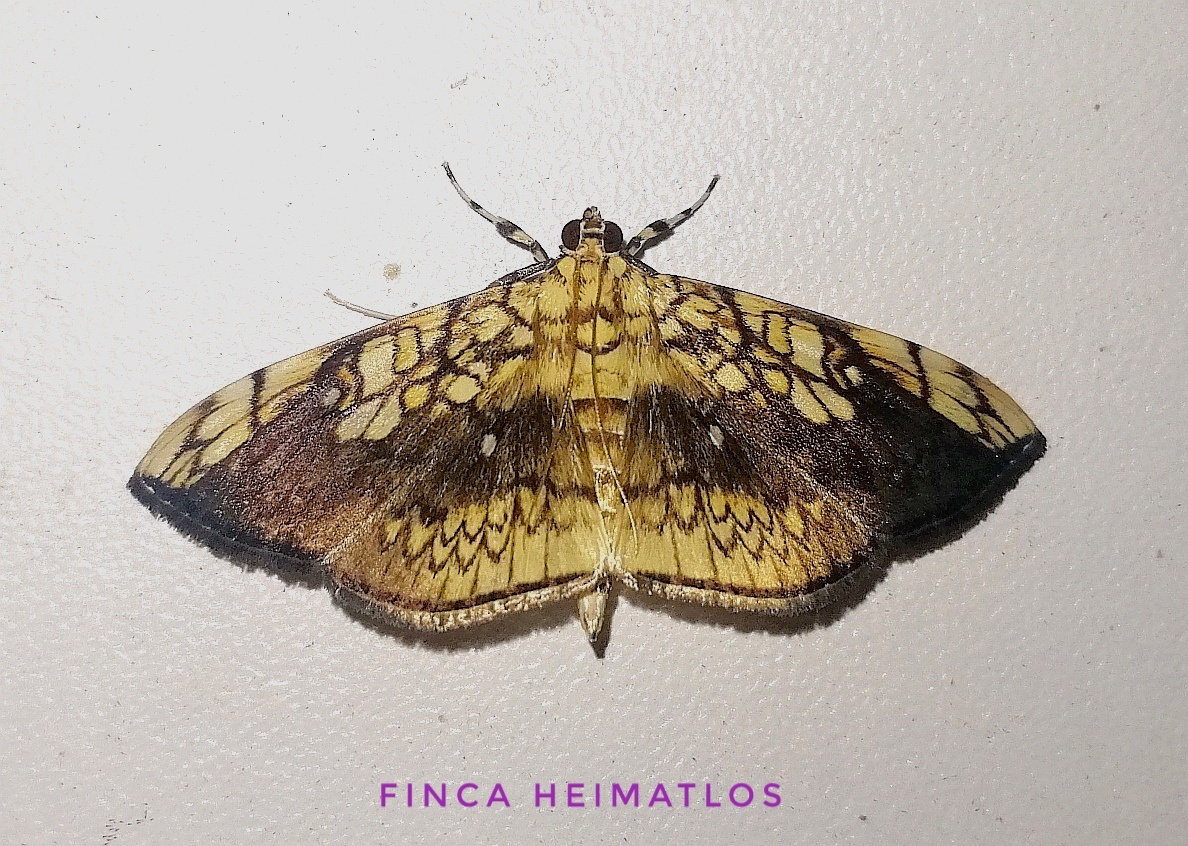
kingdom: Animalia
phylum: Arthropoda
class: Insecta
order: Lepidoptera
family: Crambidae
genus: Pantographa
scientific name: Pantographa scripturalis
